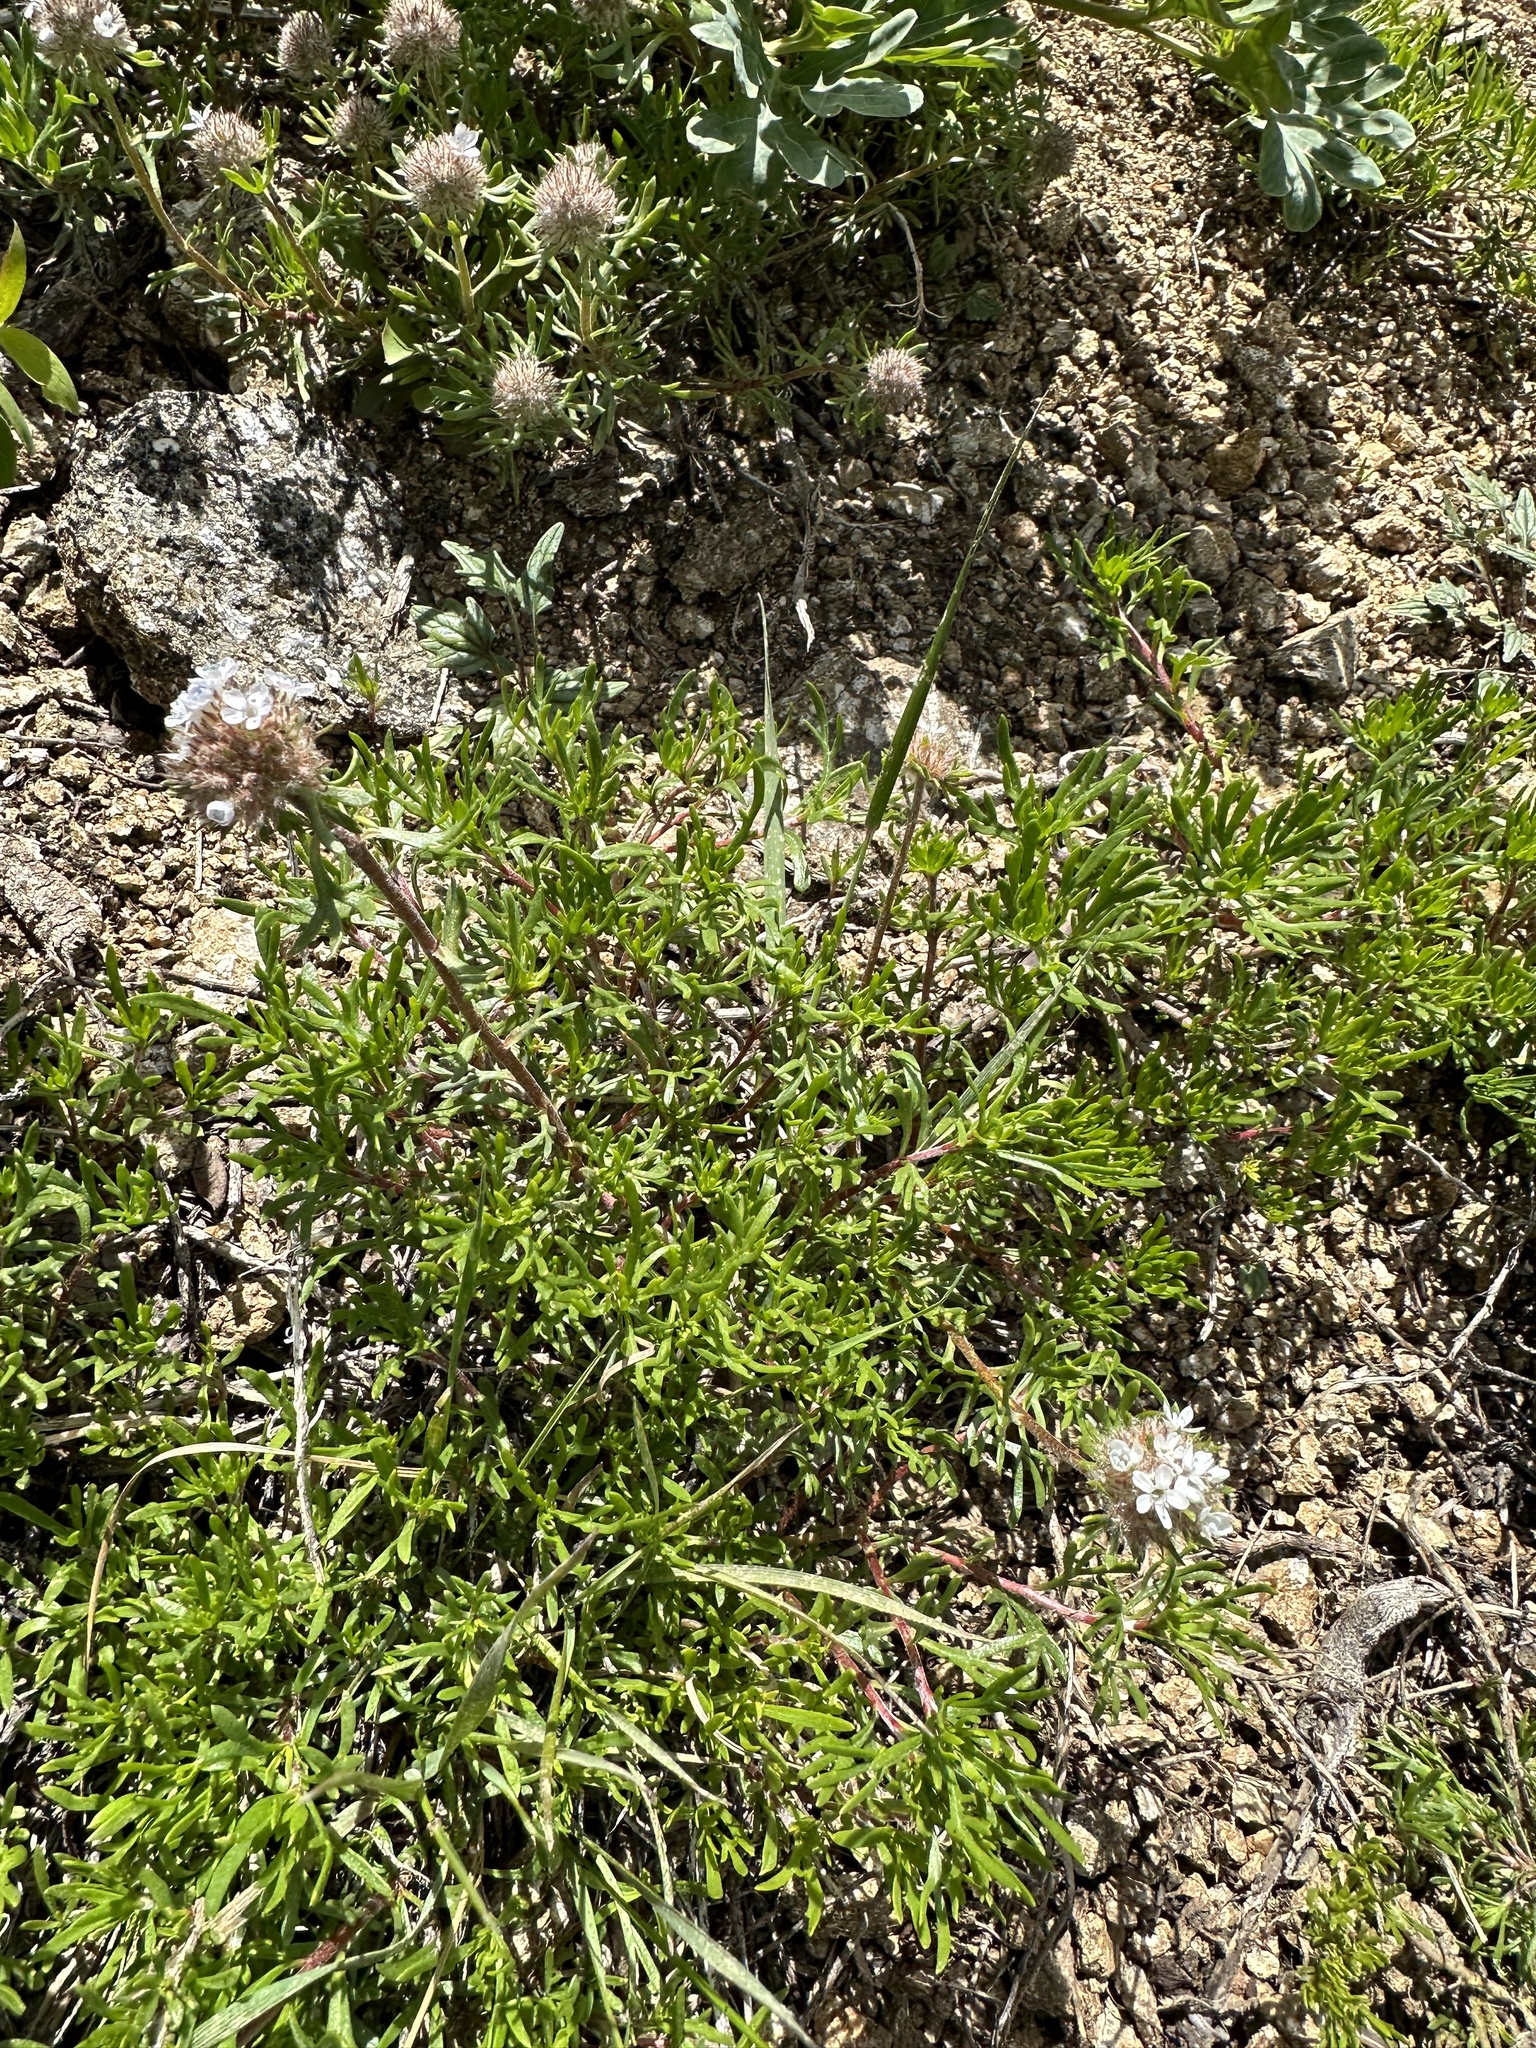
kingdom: Plantae
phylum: Tracheophyta
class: Magnoliopsida
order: Ericales
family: Polemoniaceae
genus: Ipomopsis
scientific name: Ipomopsis congesta
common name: Ball-head gilia
